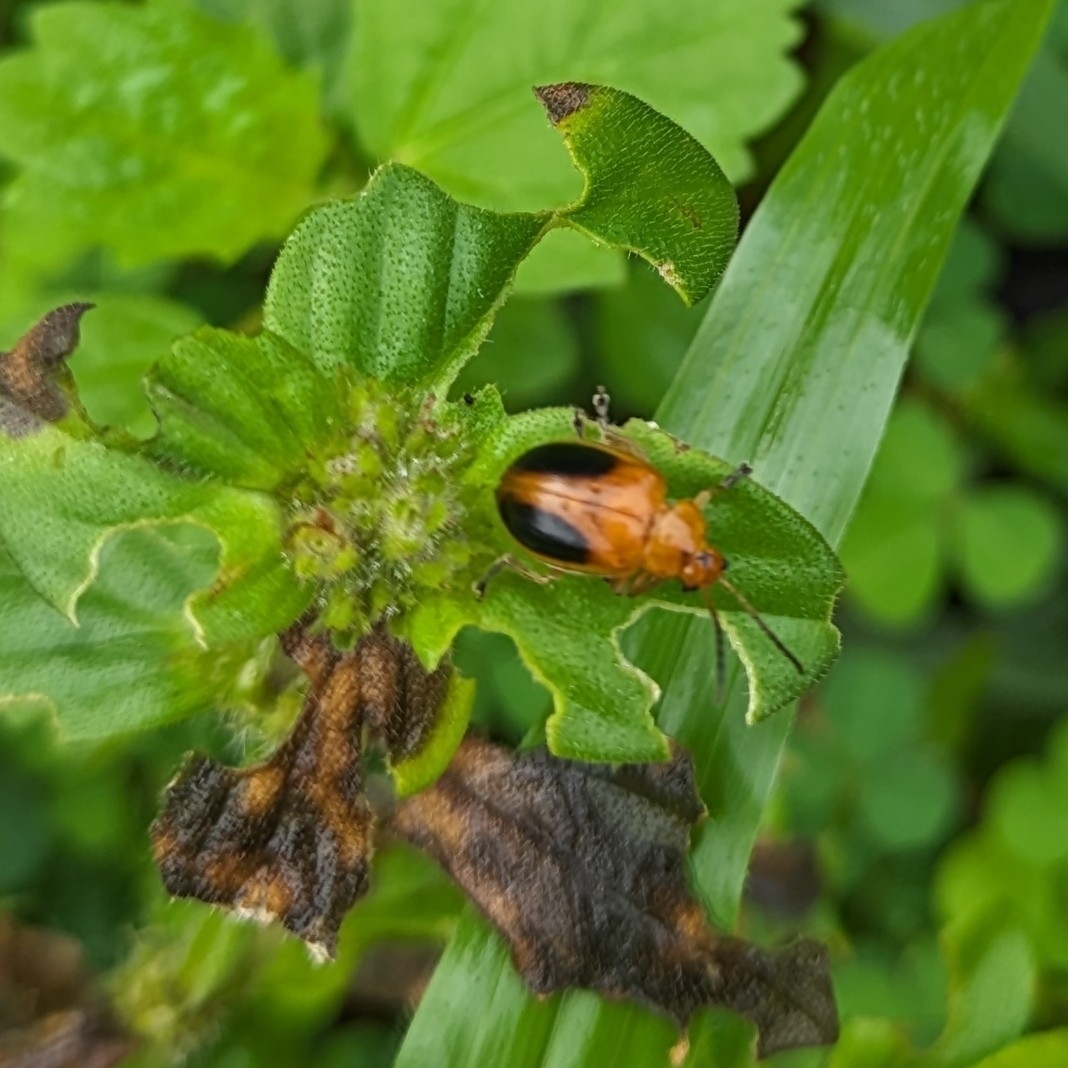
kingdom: Animalia
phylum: Arthropoda
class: Insecta
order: Coleoptera
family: Chrysomelidae
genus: Oides
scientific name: Oides affinis
